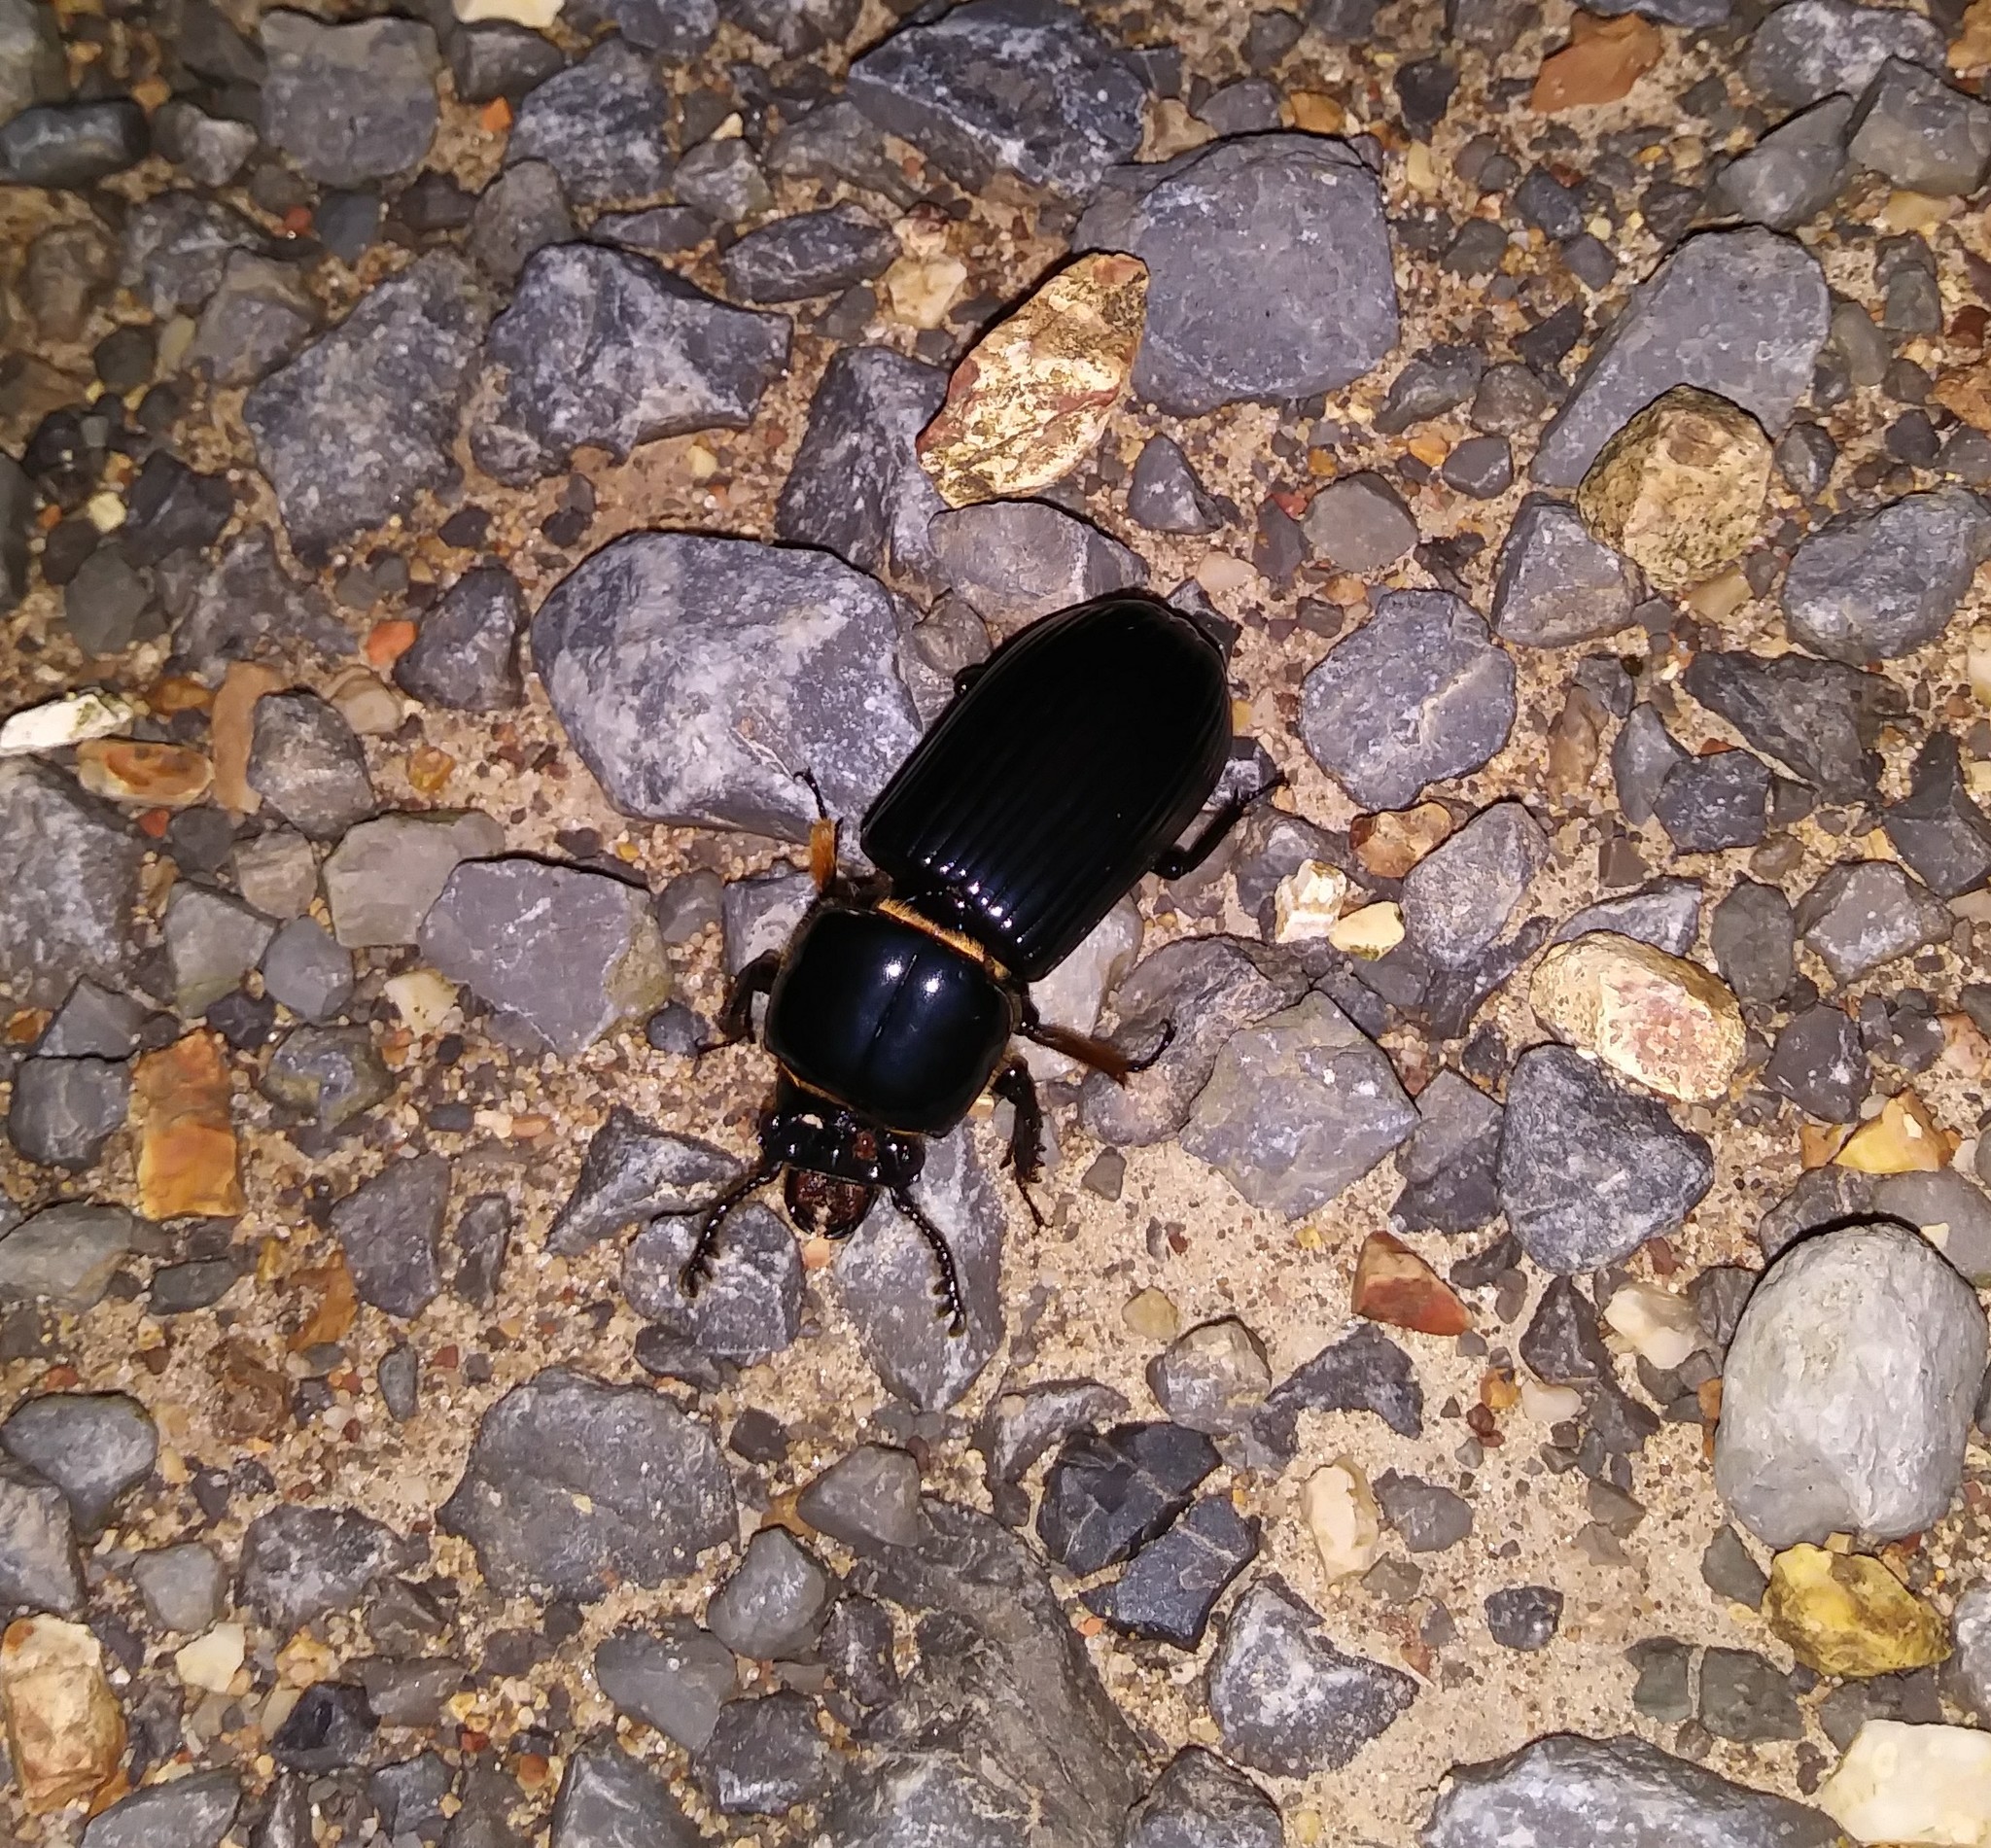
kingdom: Animalia
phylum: Arthropoda
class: Insecta
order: Coleoptera
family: Passalidae
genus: Odontotaenius
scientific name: Odontotaenius disjunctus
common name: Patent leather beetle
